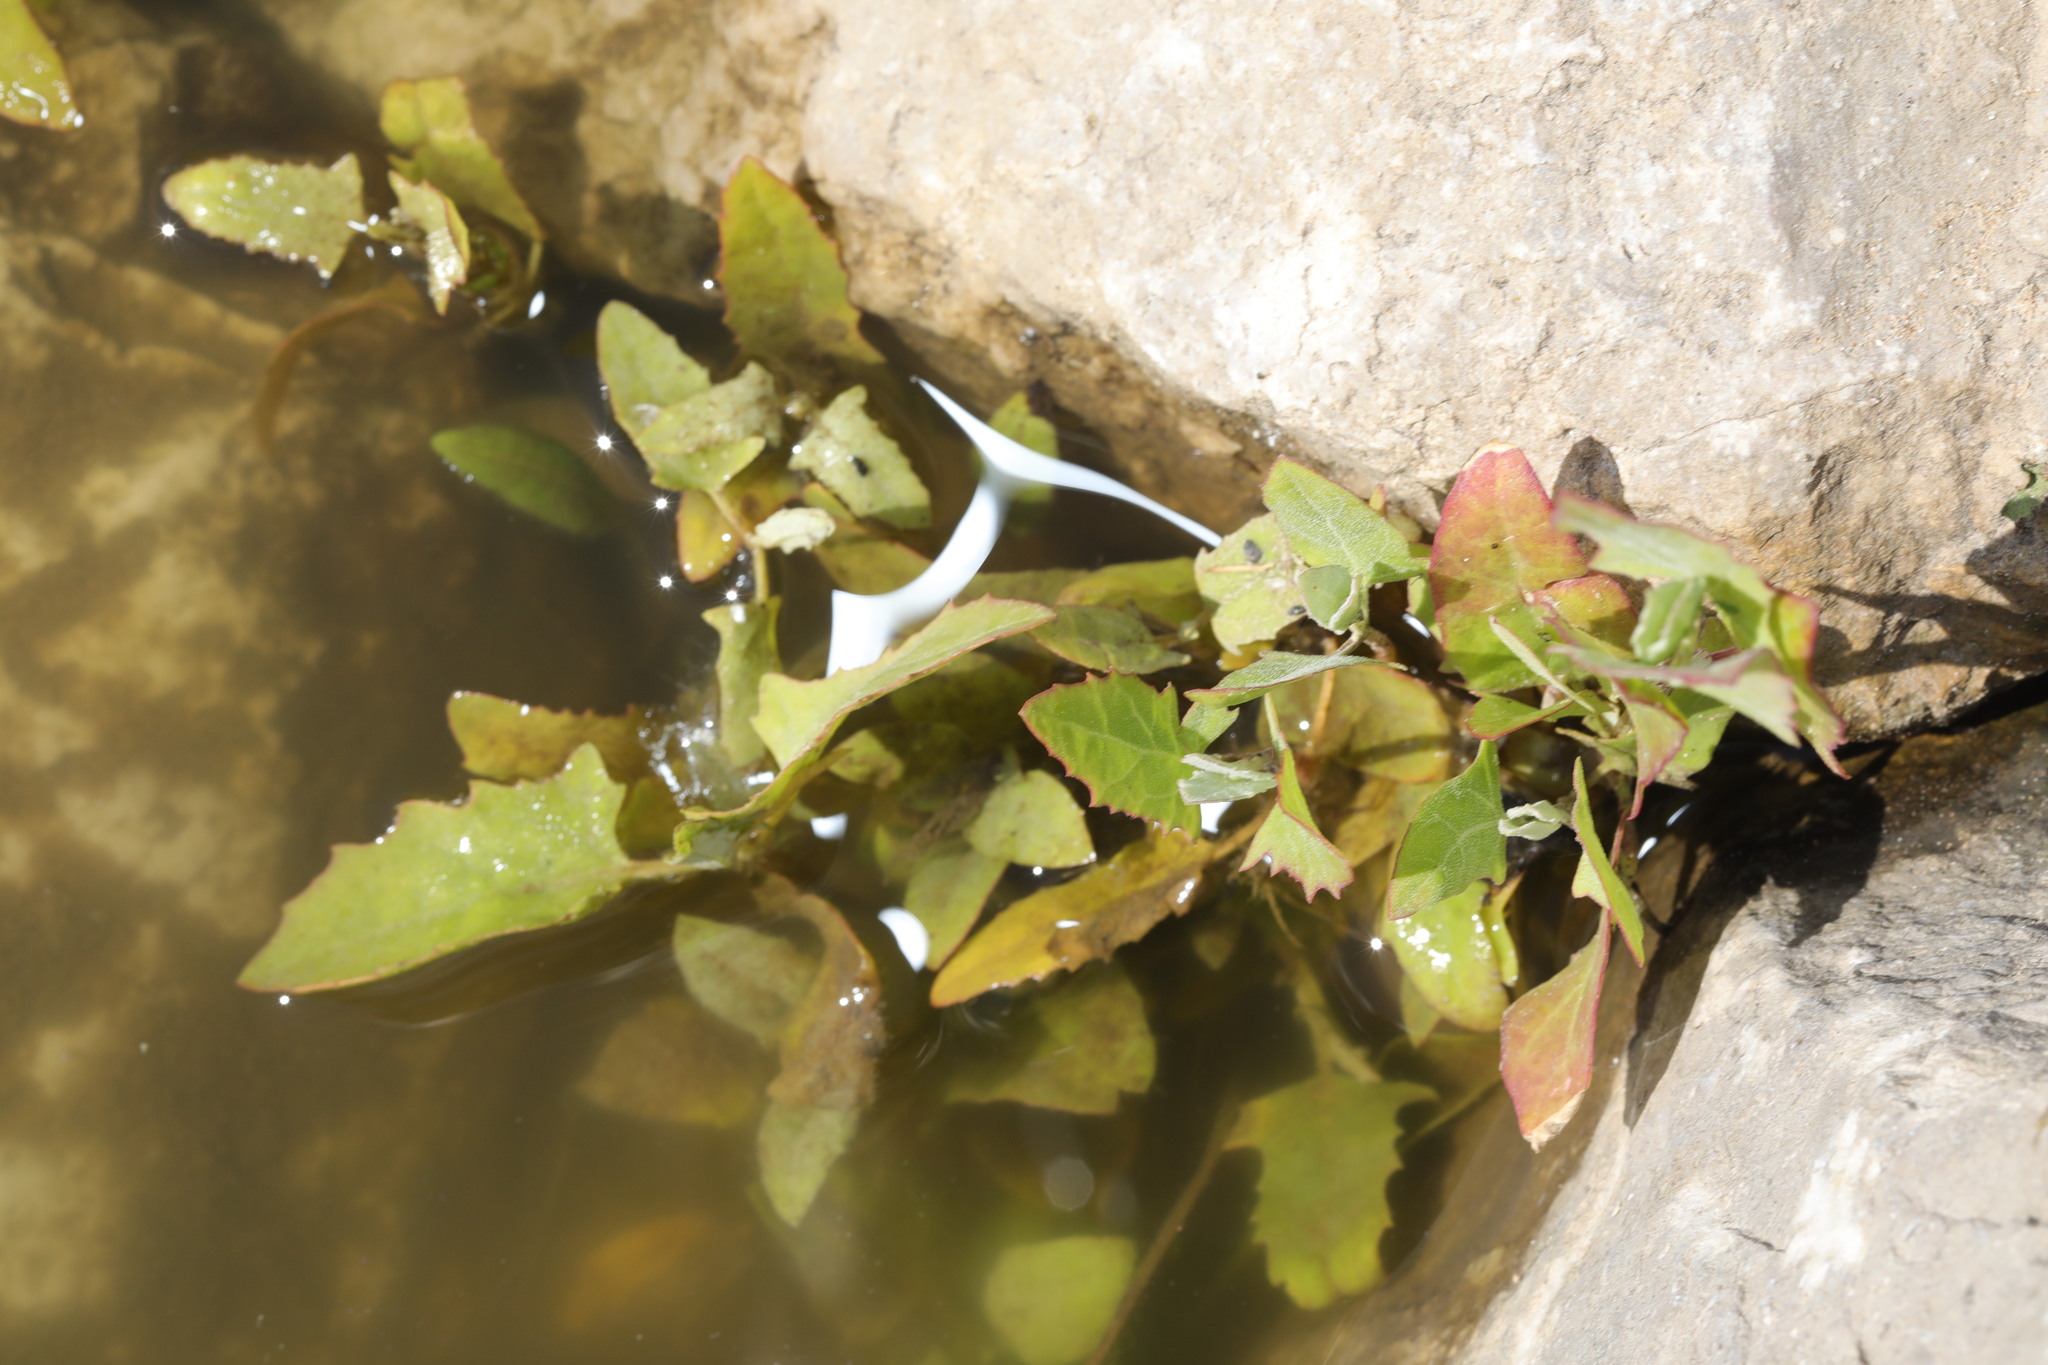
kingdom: Plantae
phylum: Tracheophyta
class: Magnoliopsida
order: Caryophyllales
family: Amaranthaceae
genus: Atriplex
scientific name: Atriplex prostrata
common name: Spear-leaved orache
